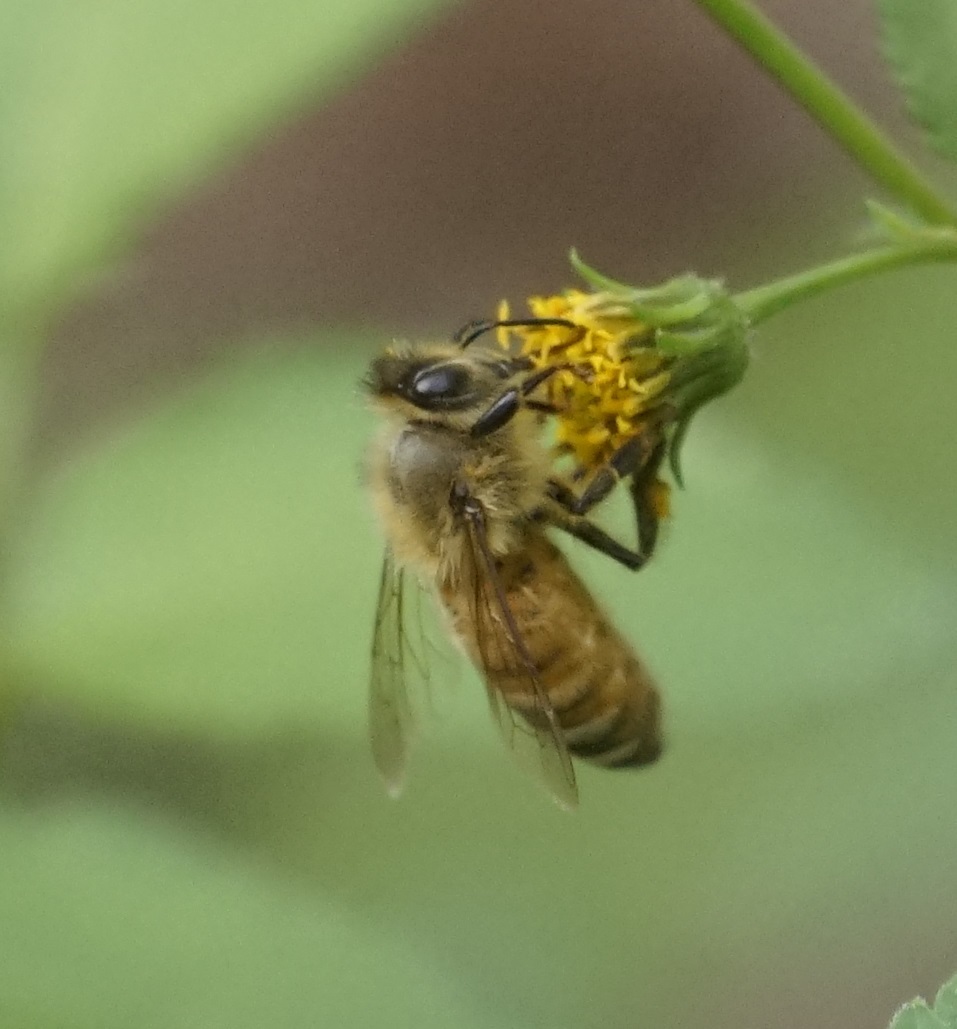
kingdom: Animalia
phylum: Arthropoda
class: Insecta
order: Hymenoptera
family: Apidae
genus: Apis
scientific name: Apis mellifera
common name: Honey bee
